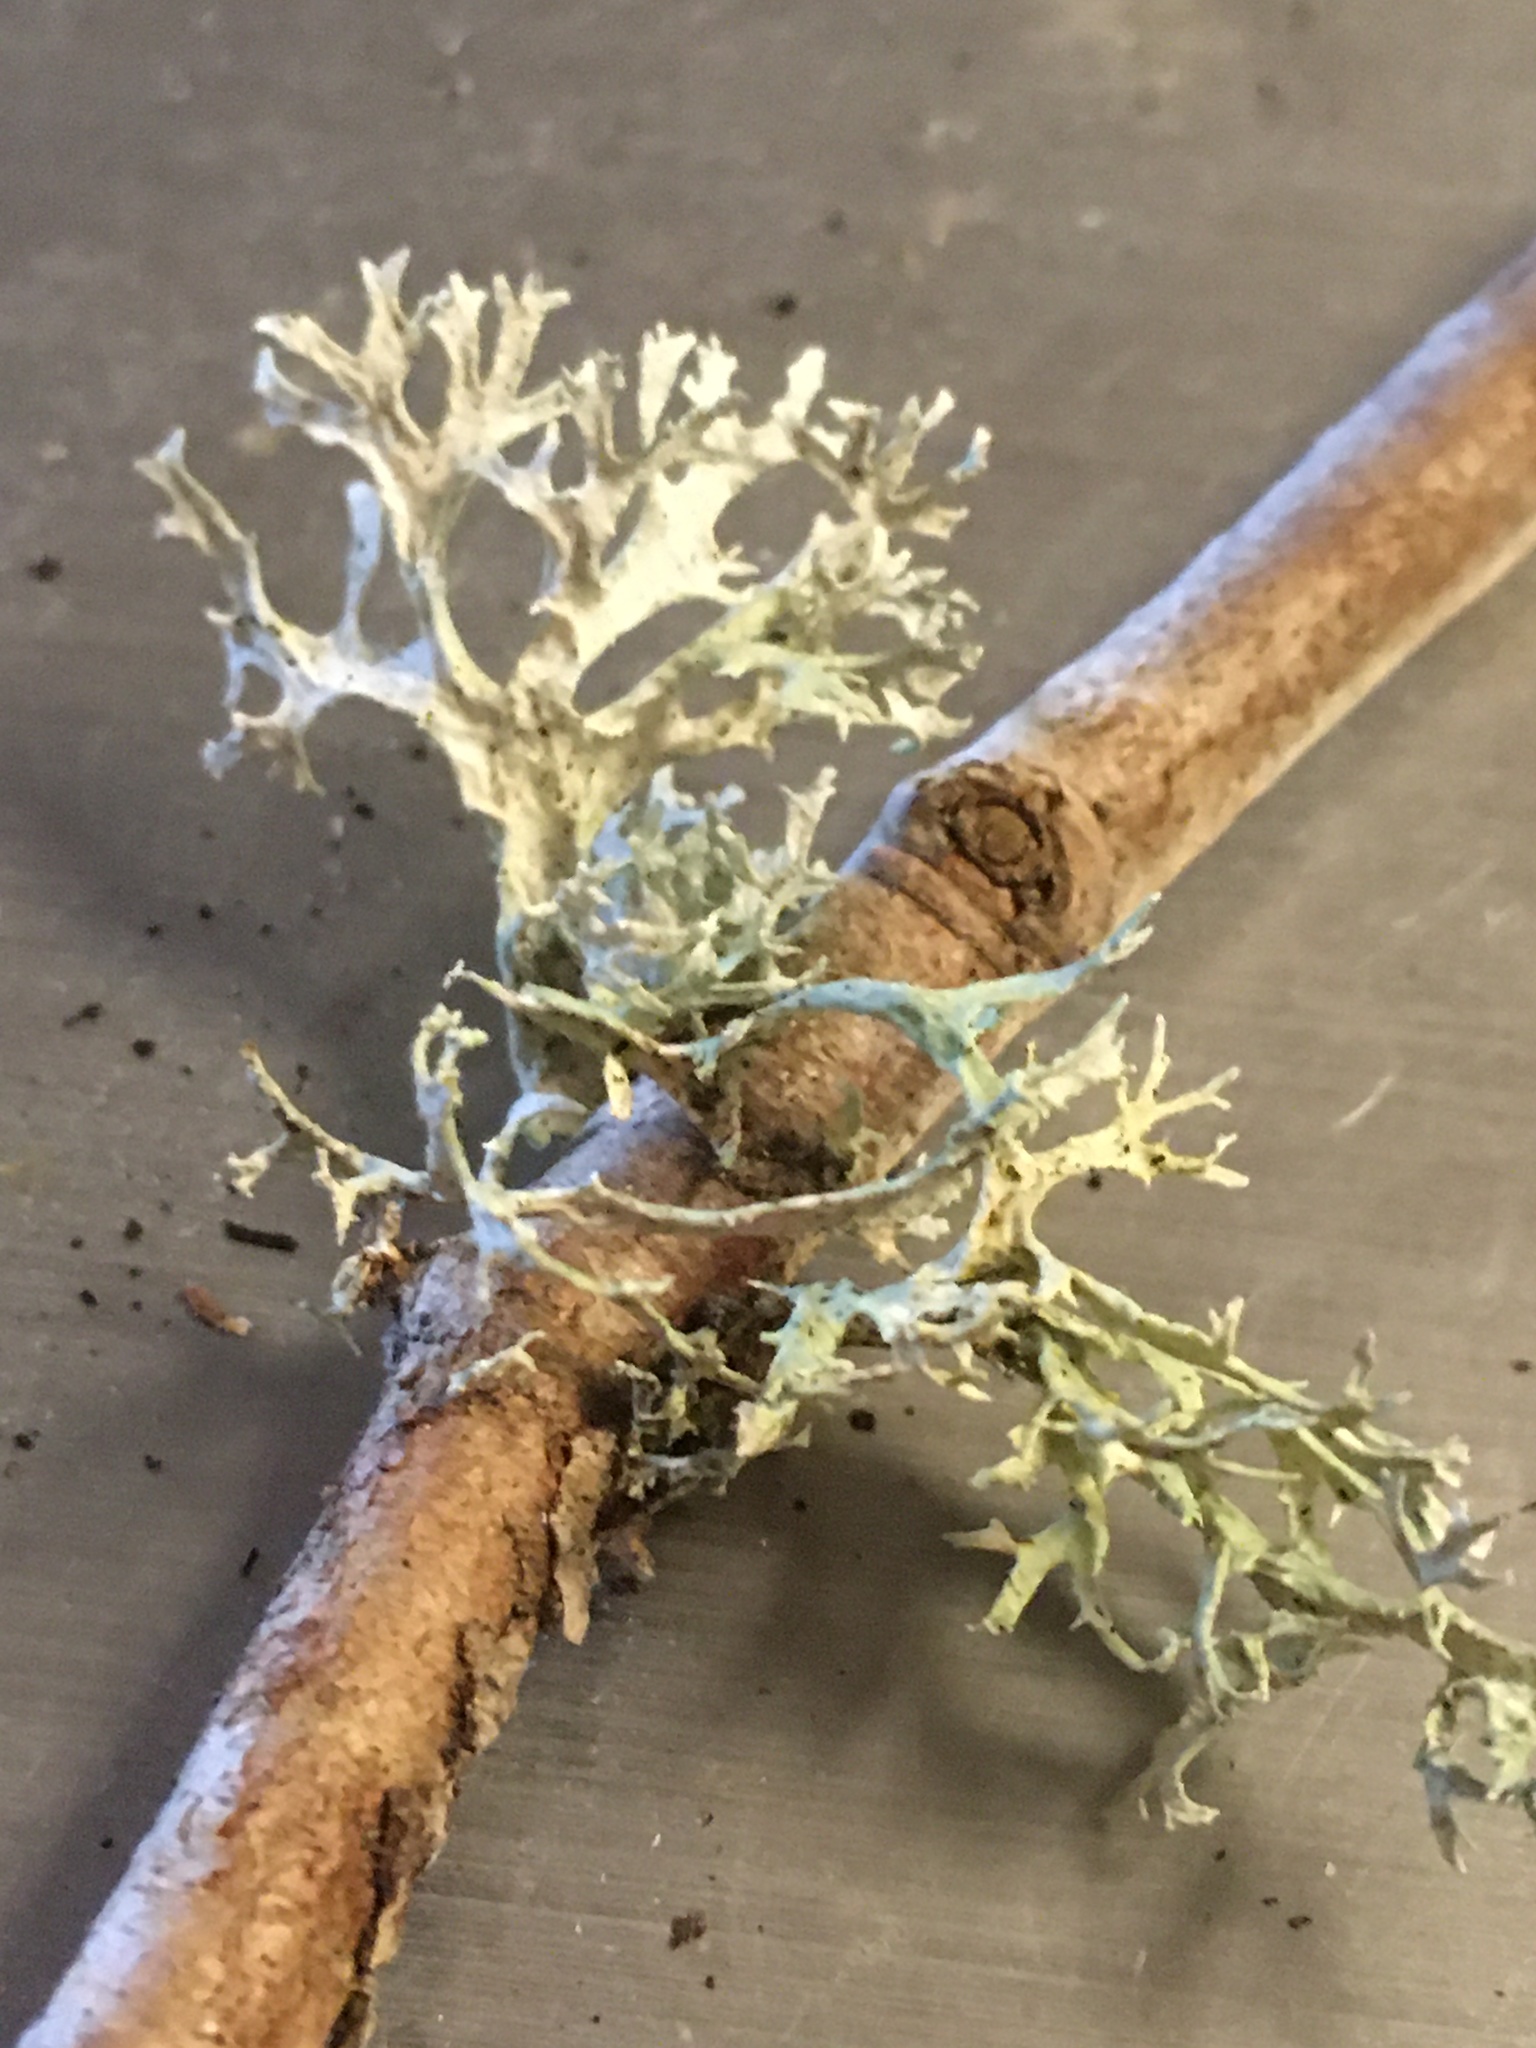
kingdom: Fungi
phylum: Ascomycota
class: Lecanoromycetes
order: Lecanorales
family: Parmeliaceae
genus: Evernia
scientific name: Evernia prunastri
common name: Oak moss
